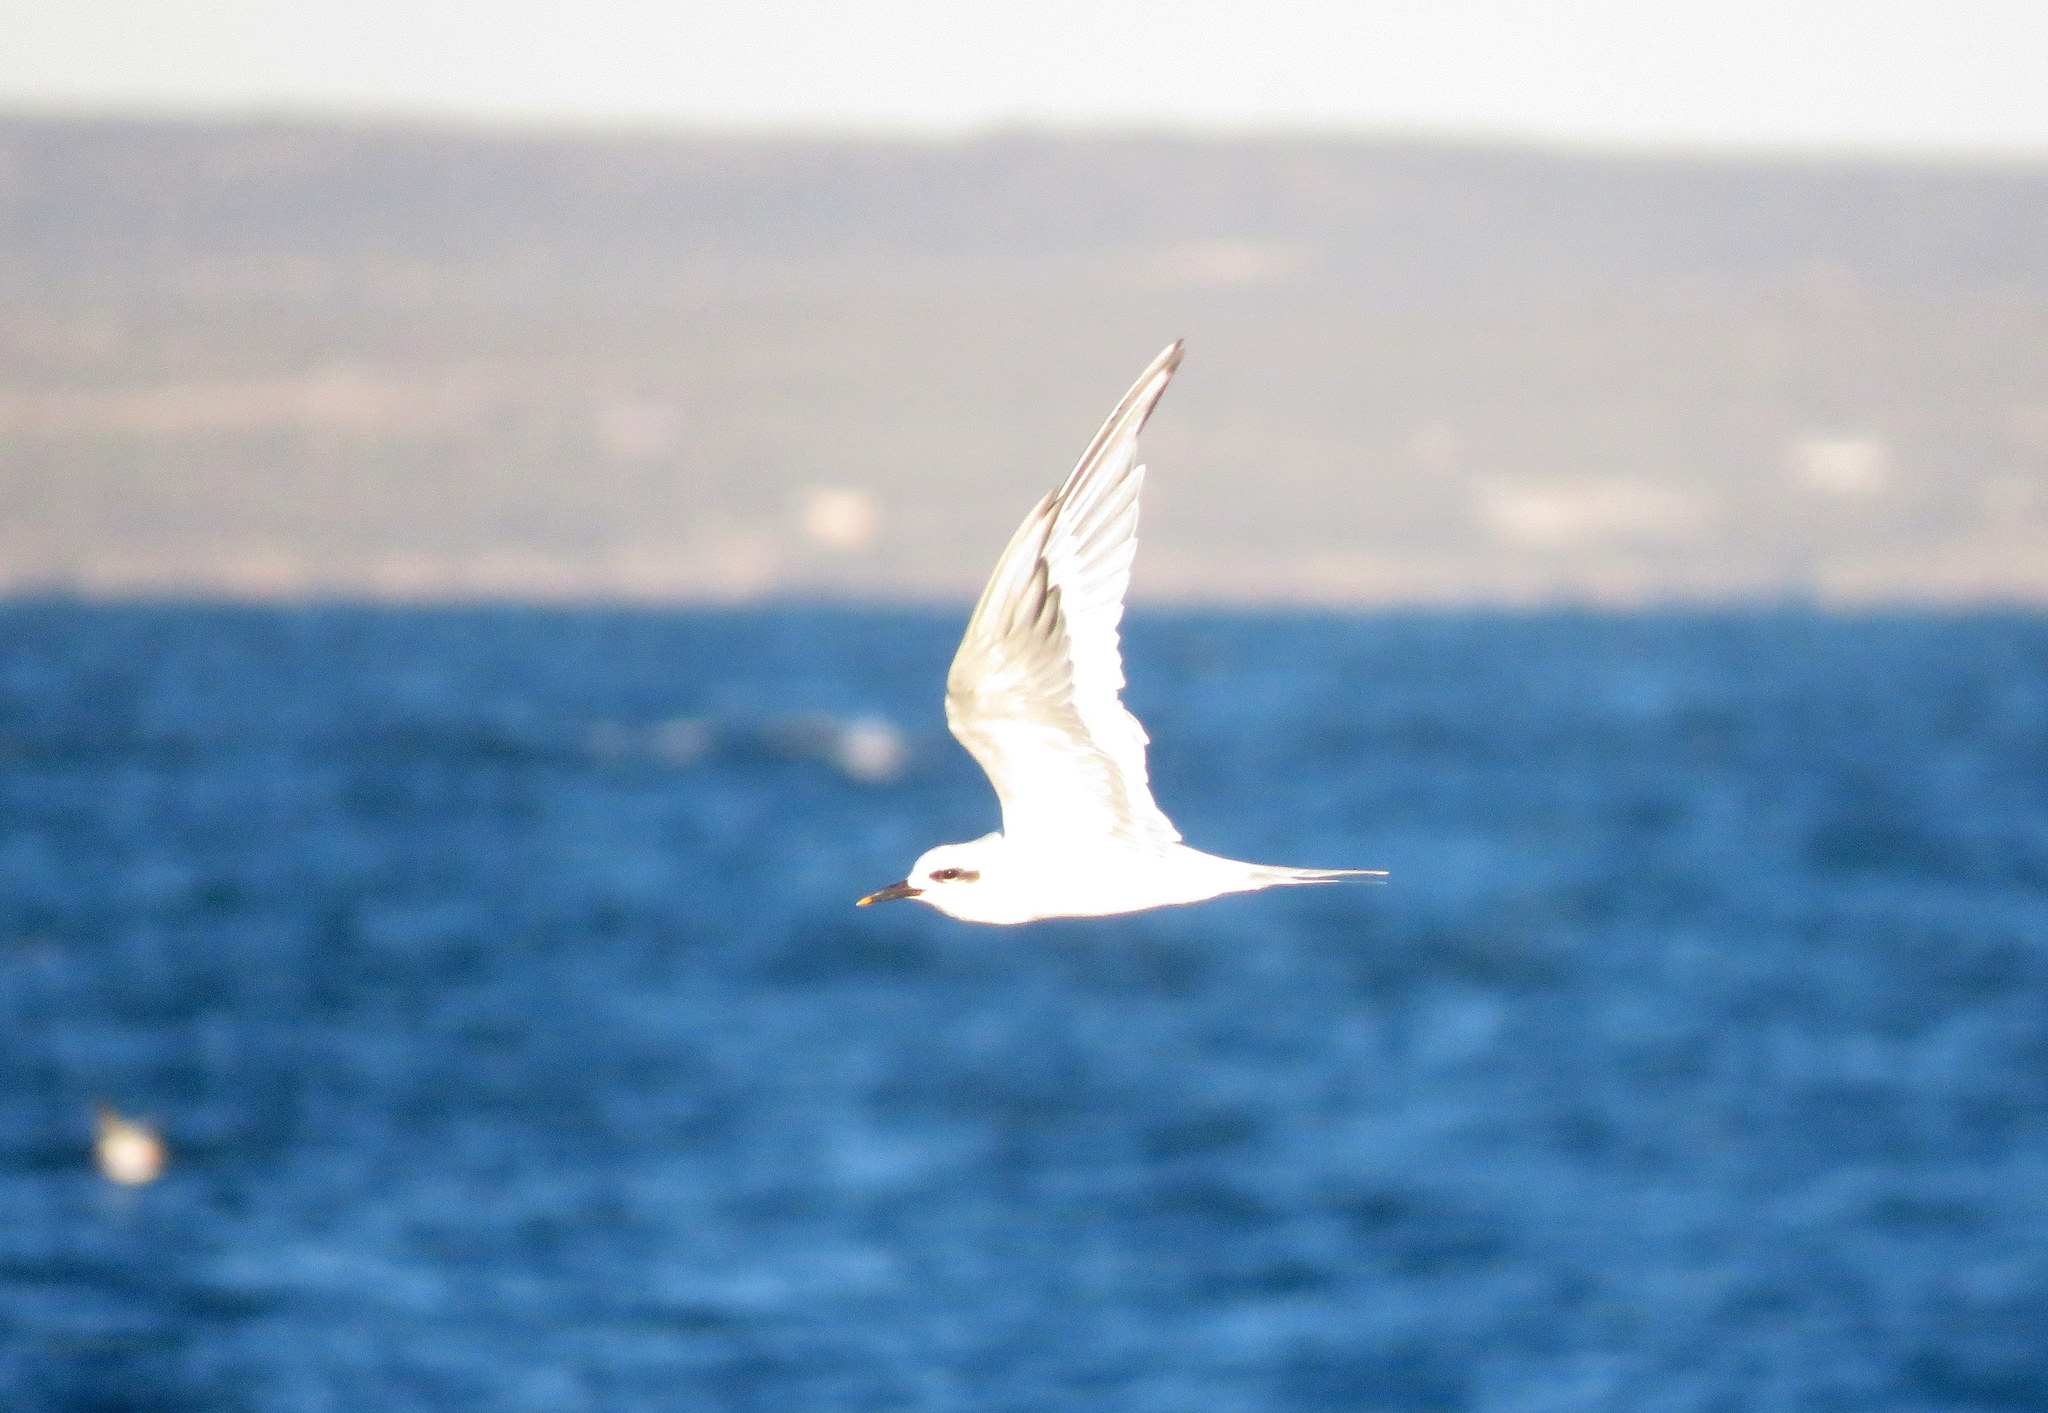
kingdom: Animalia
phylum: Chordata
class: Aves
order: Charadriiformes
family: Laridae
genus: Sterna
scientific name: Sterna trudeaui
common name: Snowy-crowned tern
